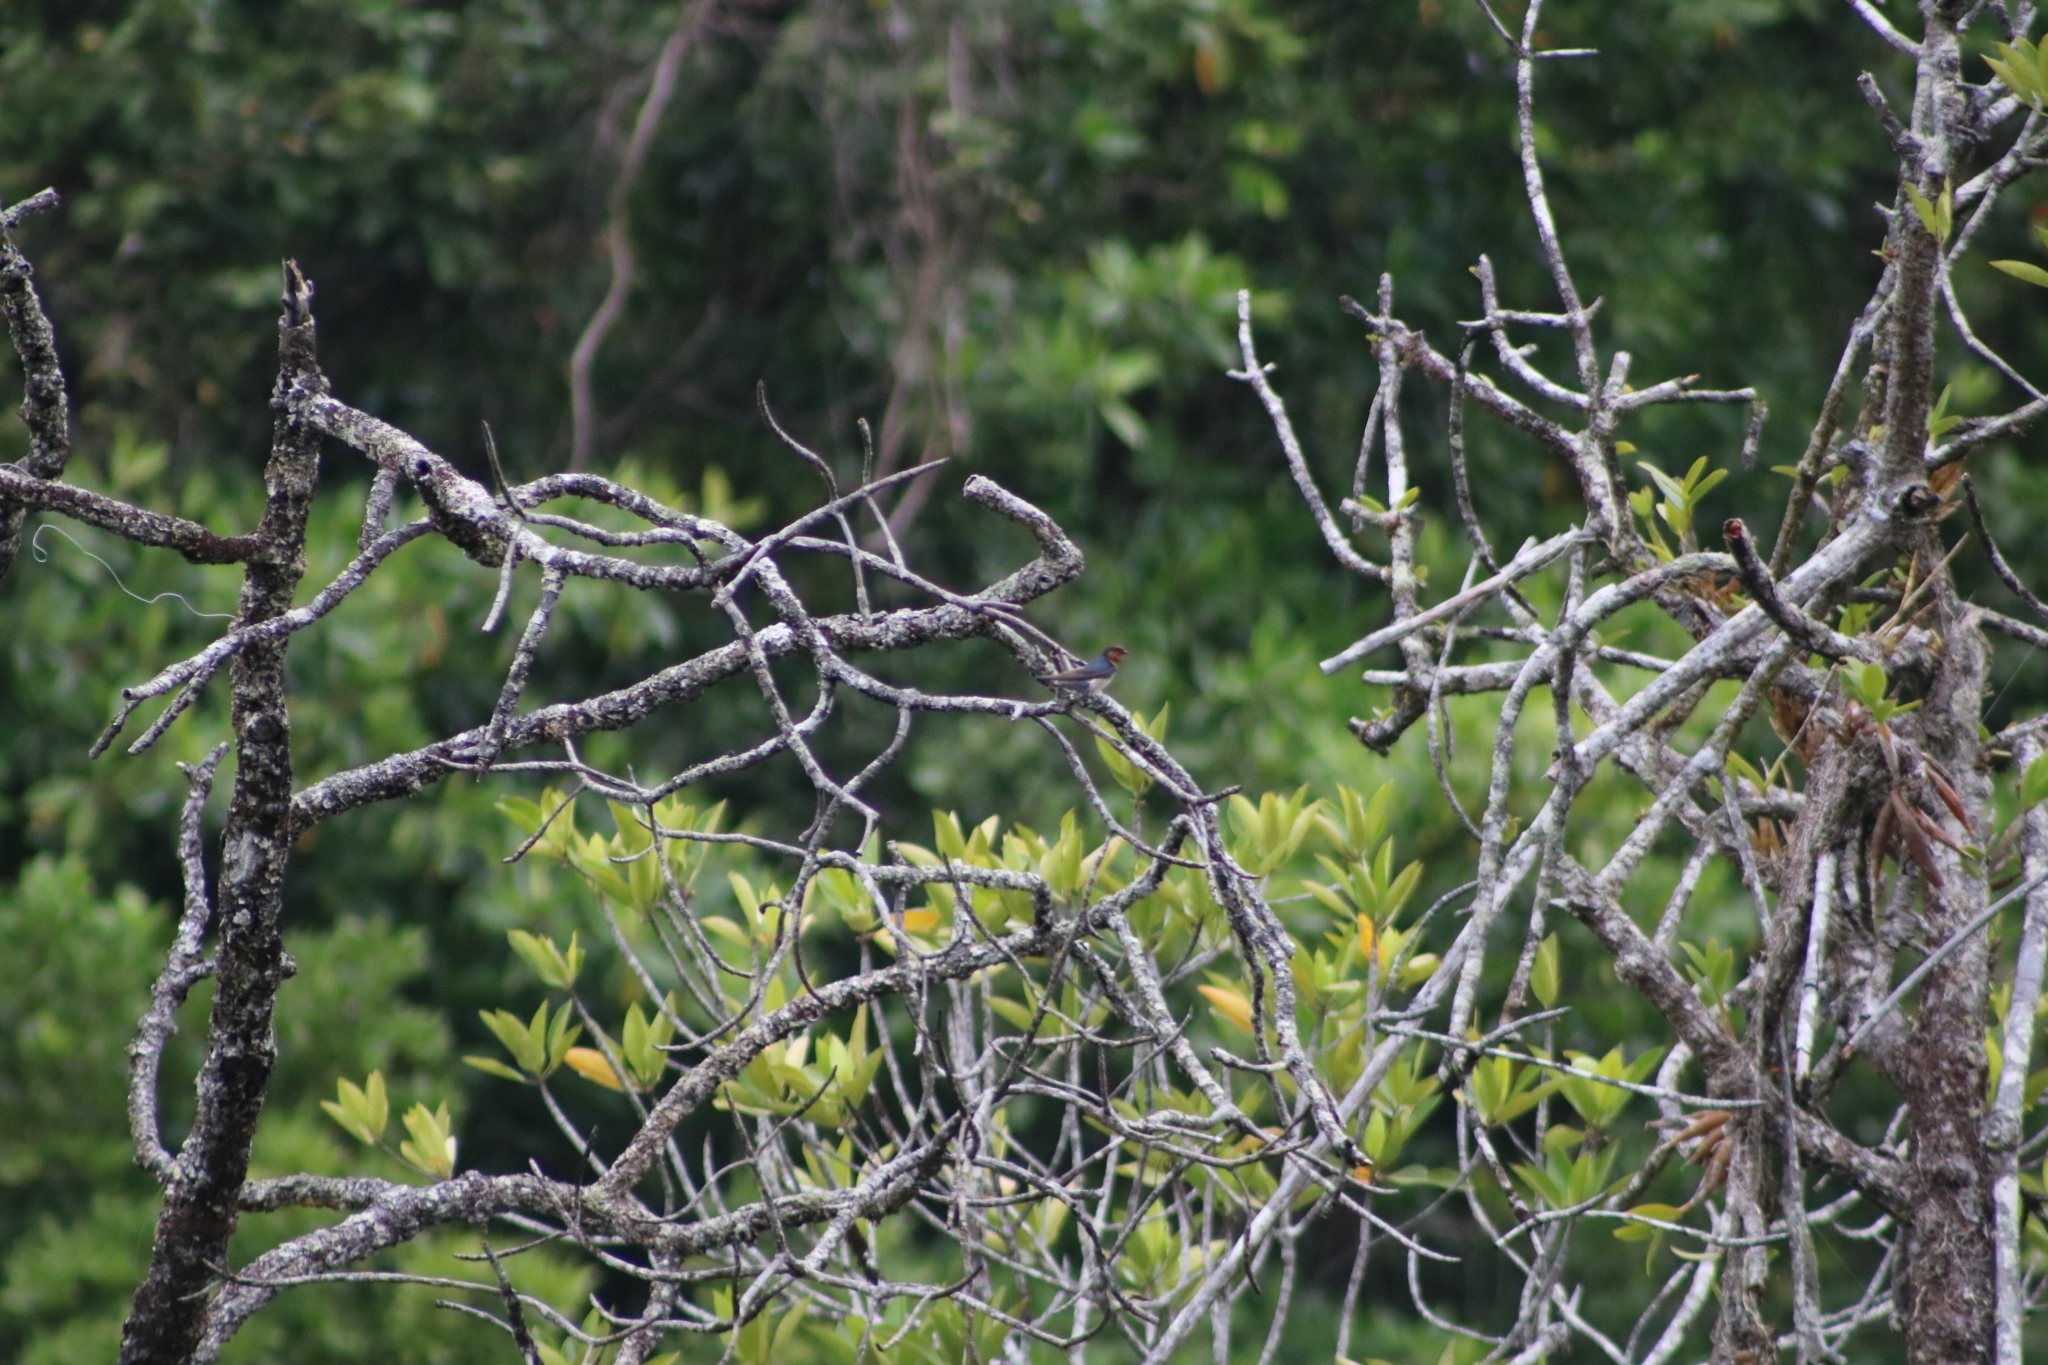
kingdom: Animalia
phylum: Chordata
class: Aves
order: Passeriformes
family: Hirundinidae
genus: Hirundo
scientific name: Hirundo neoxena
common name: Welcome swallow
